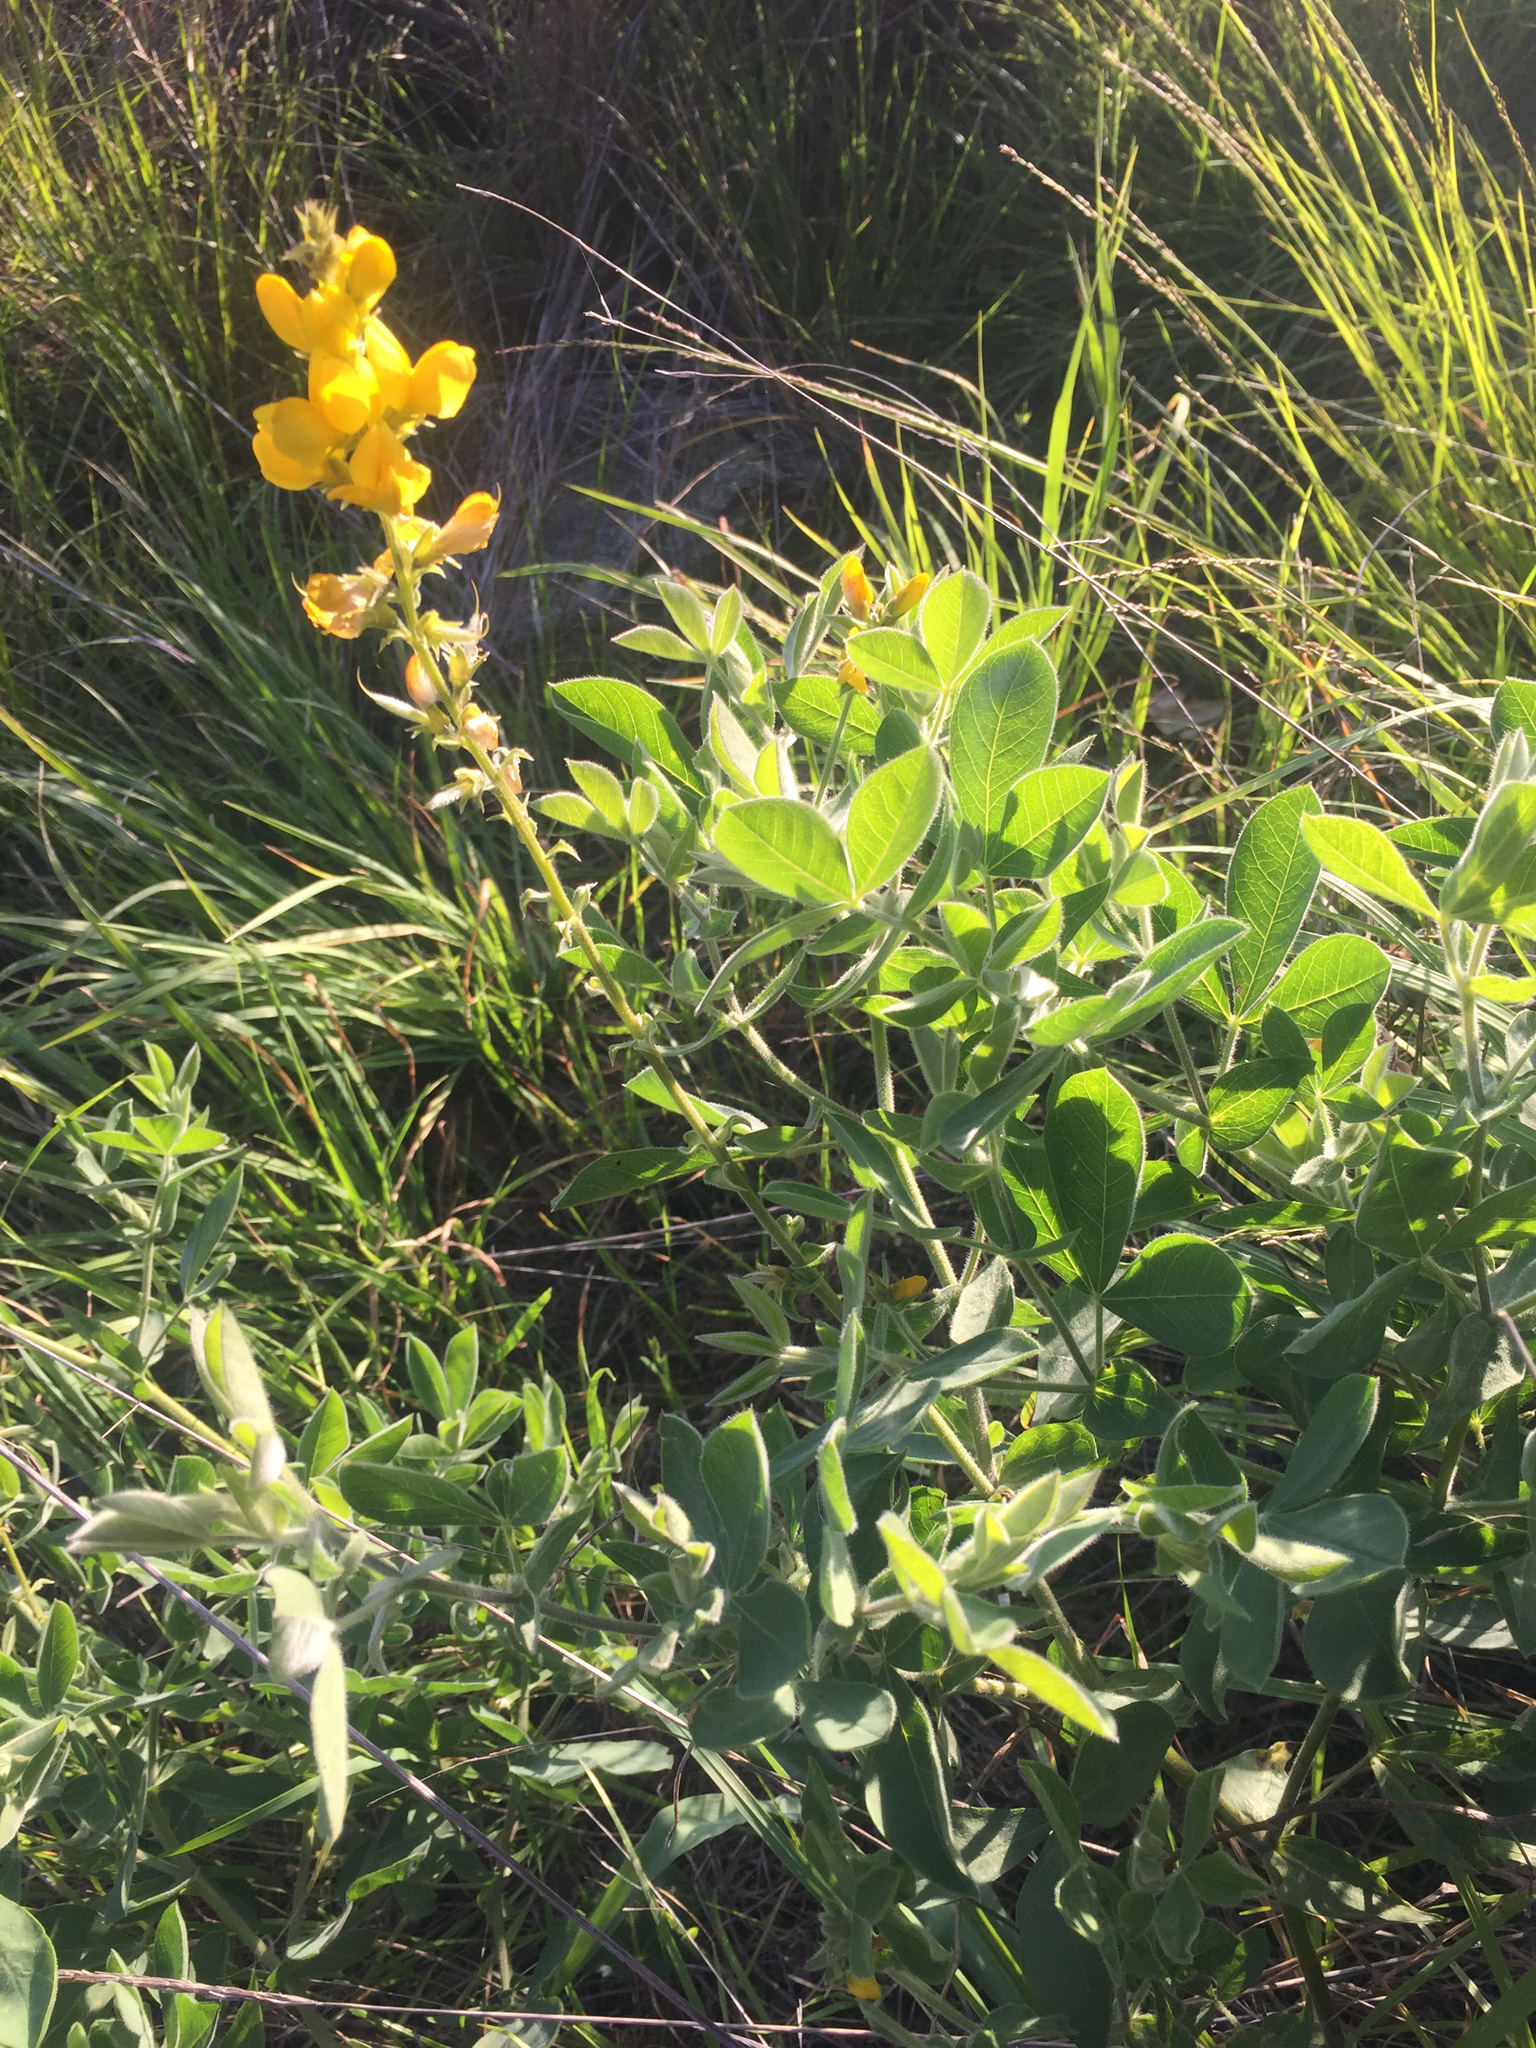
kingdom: Plantae
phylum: Tracheophyta
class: Magnoliopsida
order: Fabales
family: Fabaceae
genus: Thermopsis
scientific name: Thermopsis californica
